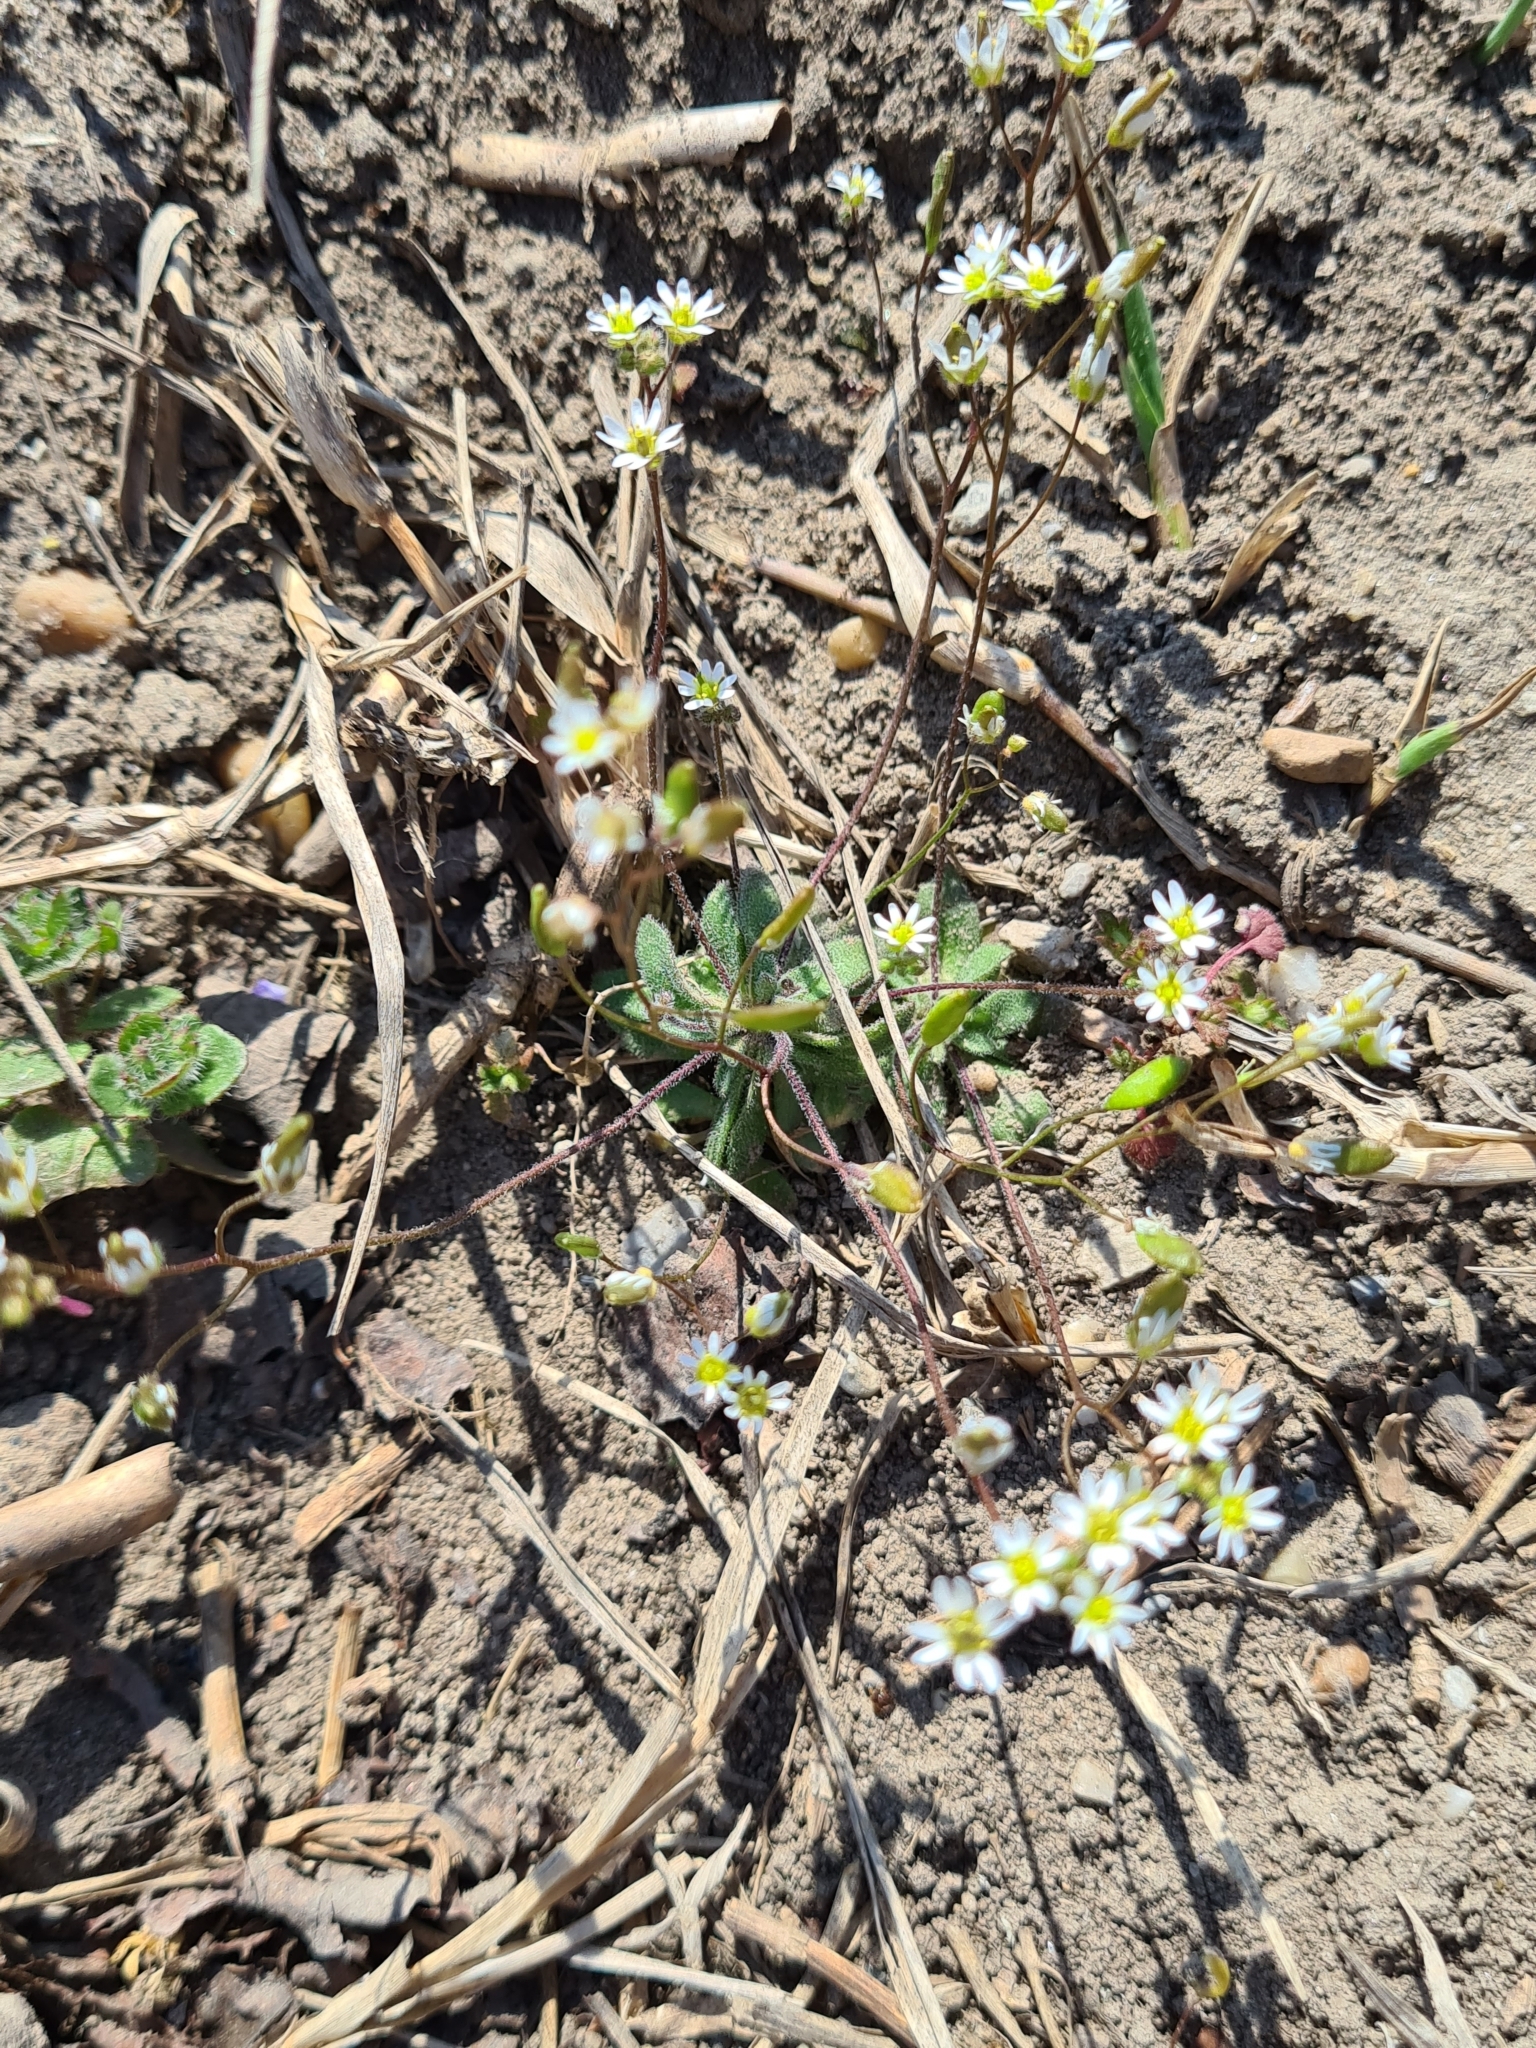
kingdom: Plantae
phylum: Tracheophyta
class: Magnoliopsida
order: Brassicales
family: Brassicaceae
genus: Draba
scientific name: Draba verna
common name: Spring draba
